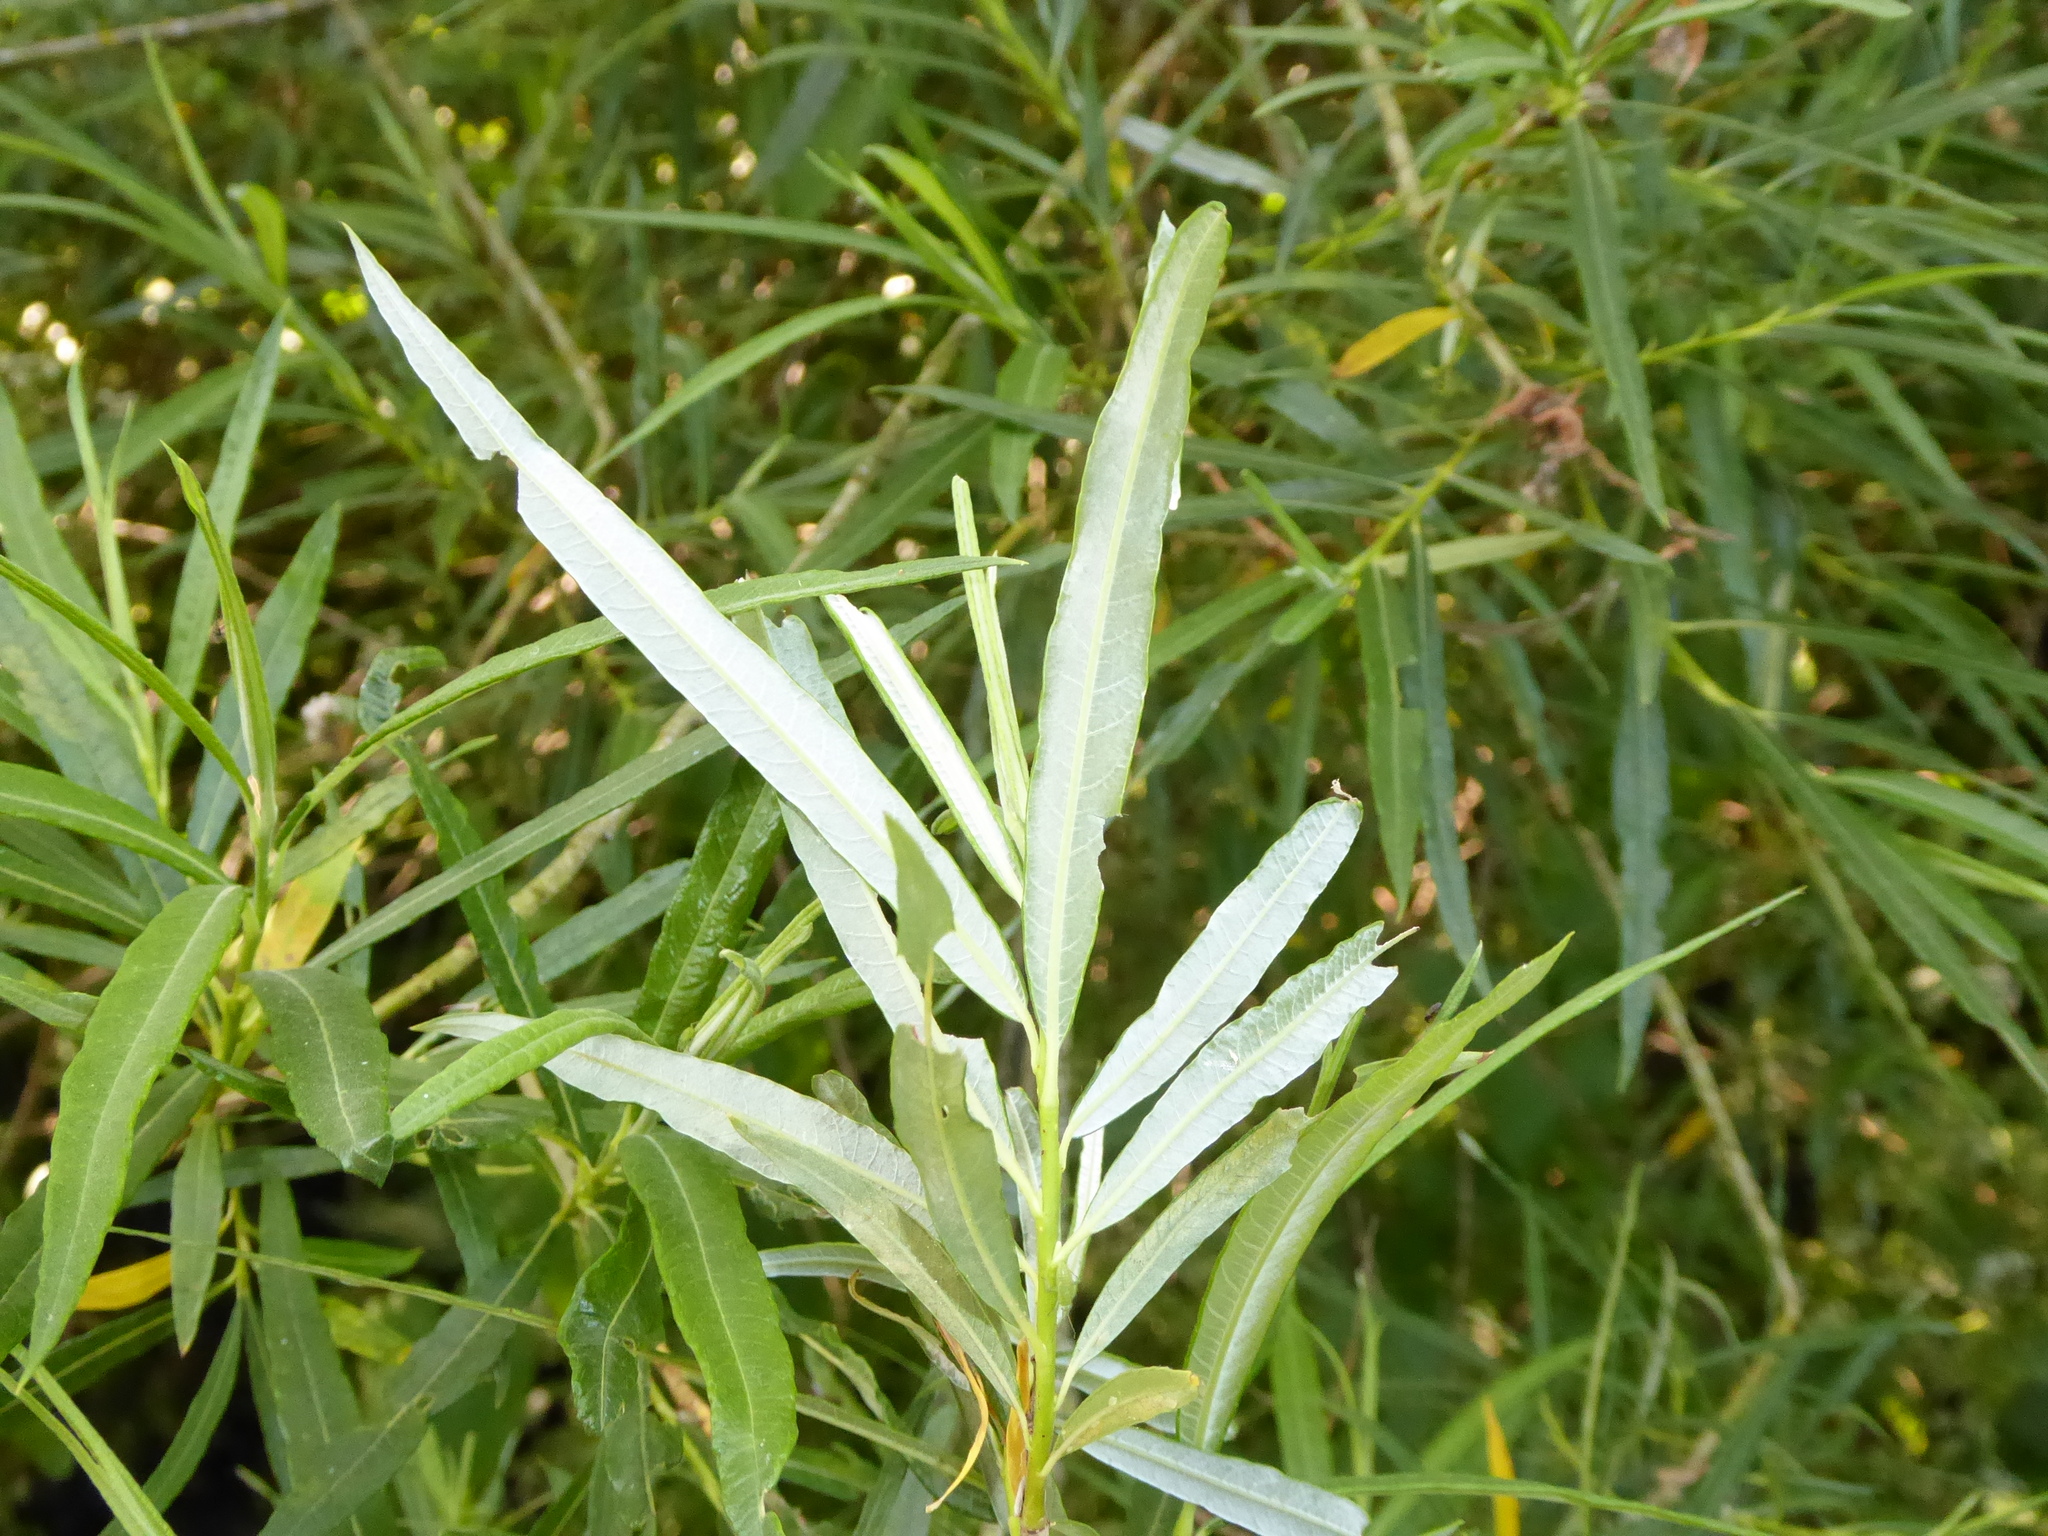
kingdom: Plantae
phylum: Tracheophyta
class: Magnoliopsida
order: Malpighiales
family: Salicaceae
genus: Salix
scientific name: Salix viminalis
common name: Osier
